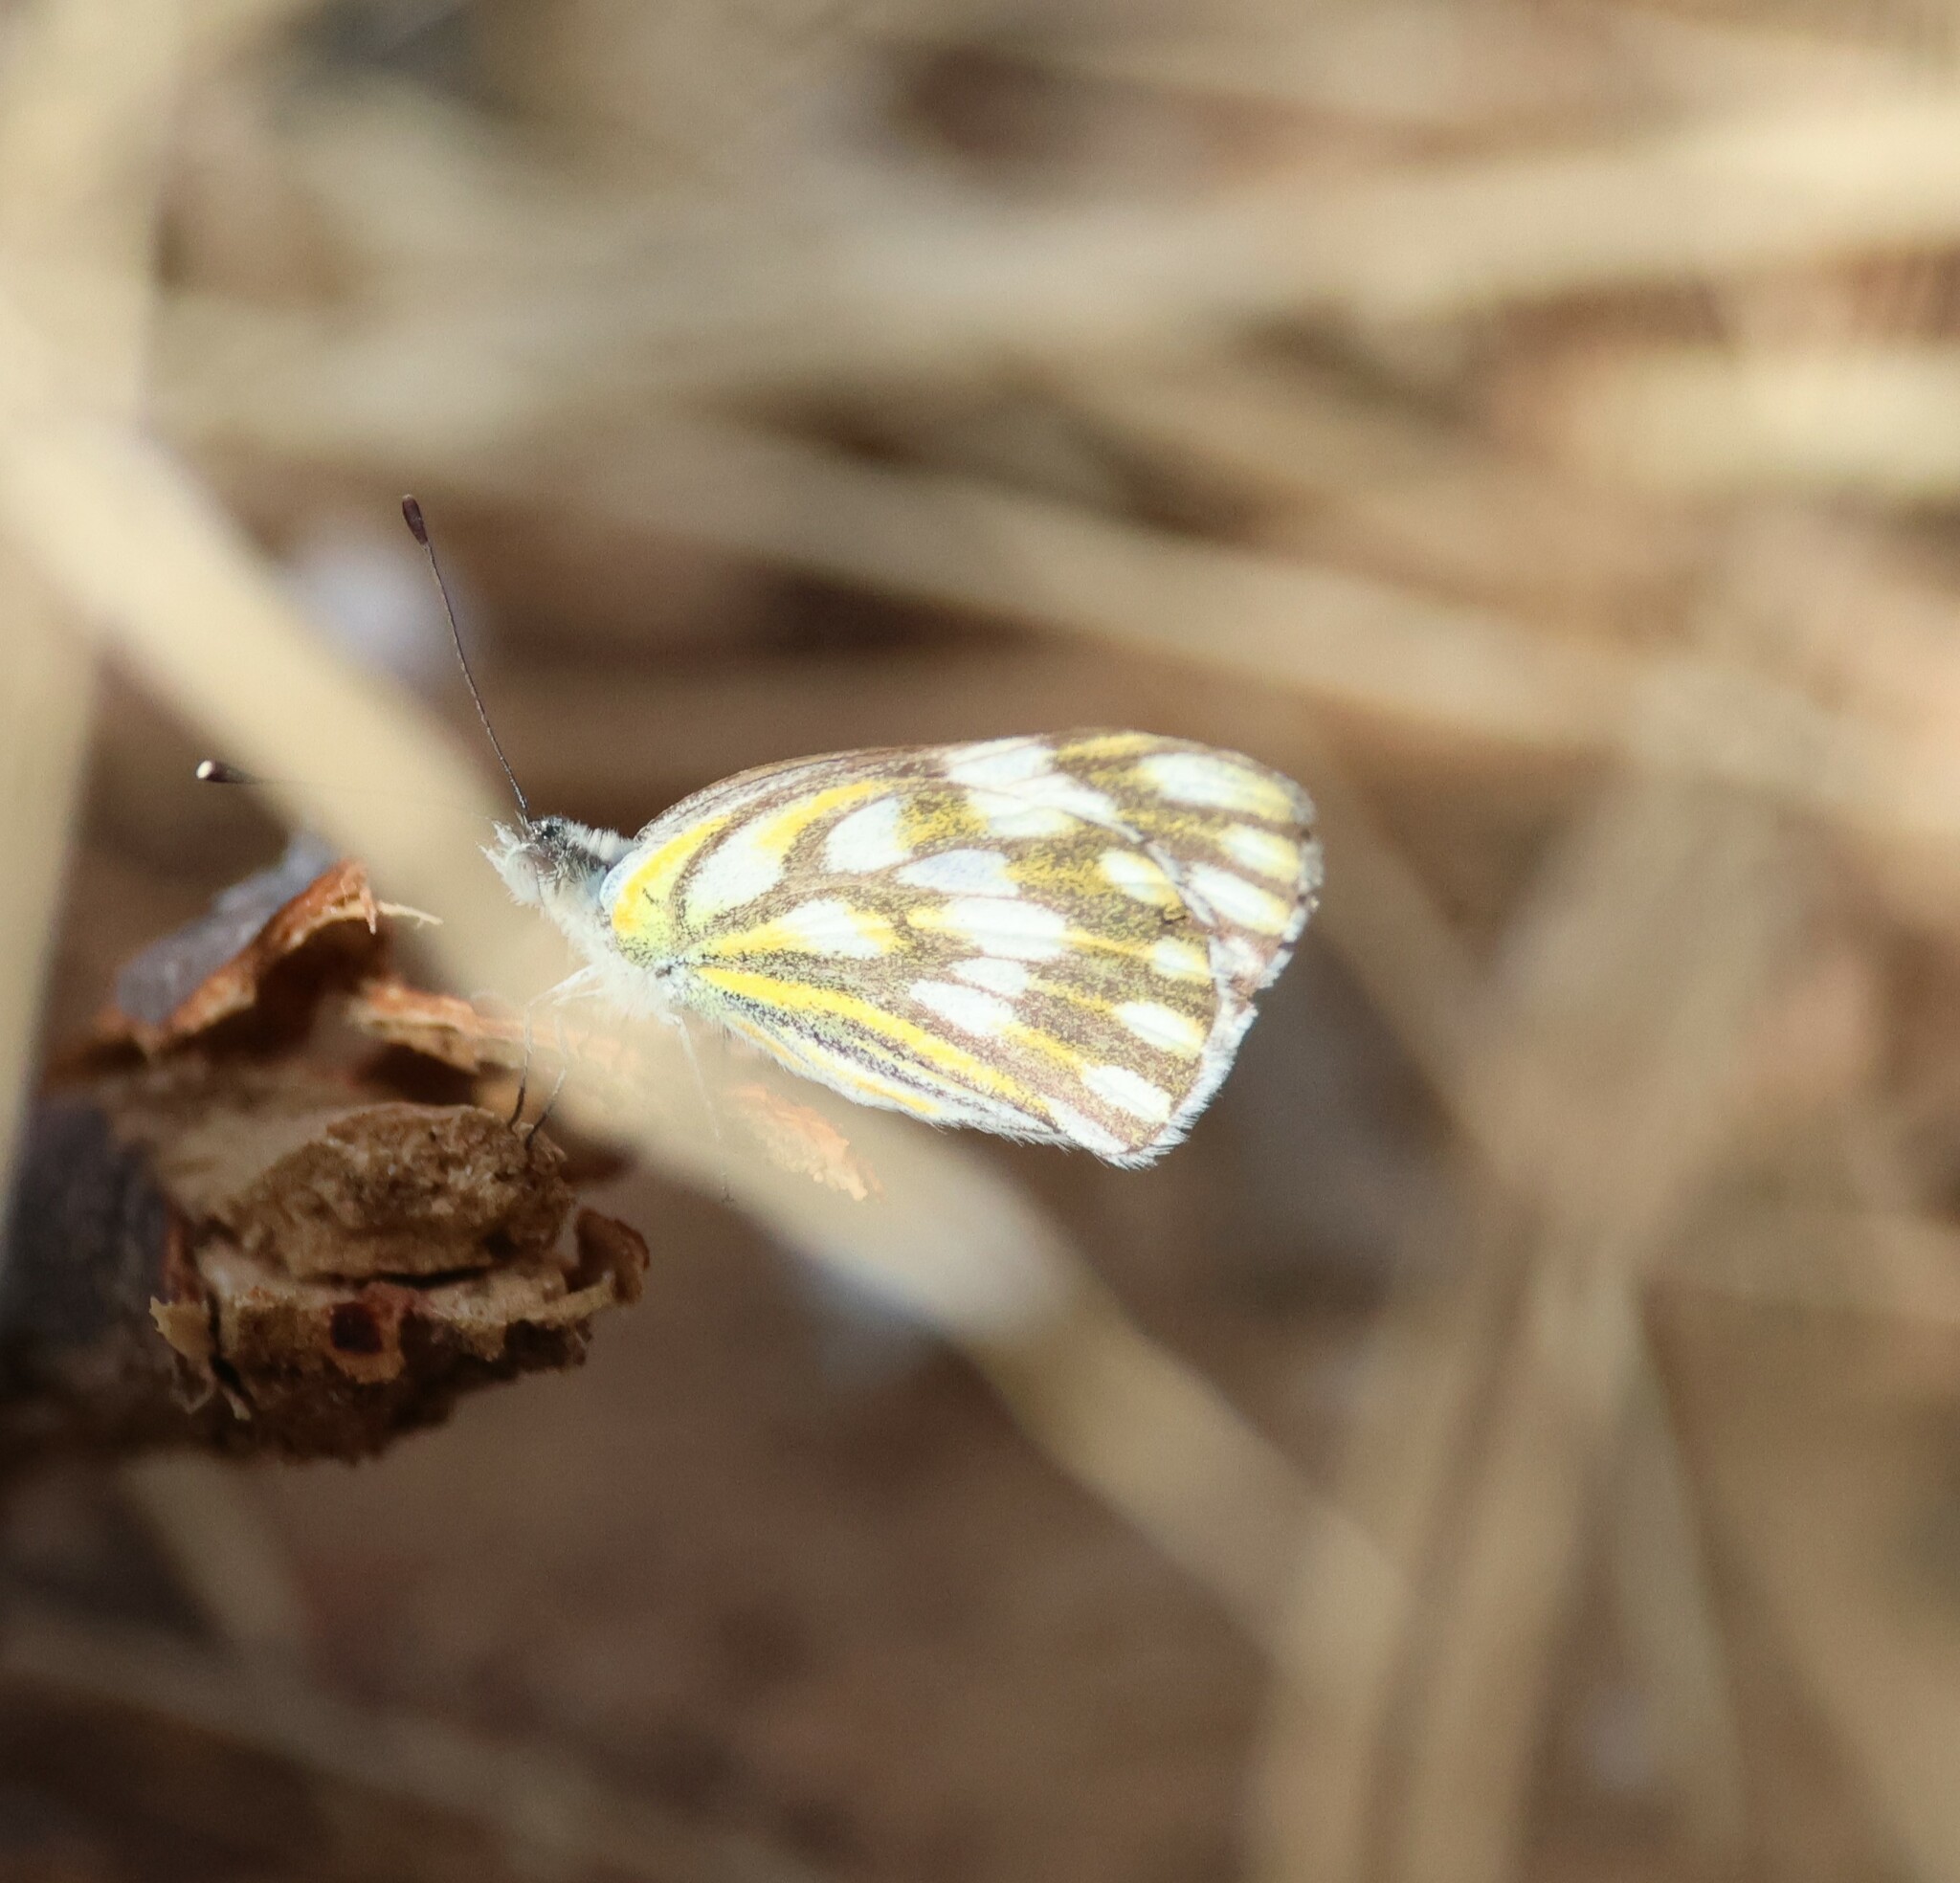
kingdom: Animalia
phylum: Arthropoda
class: Insecta
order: Lepidoptera
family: Pieridae
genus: Pontia
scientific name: Pontia helice
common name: Meadow white
